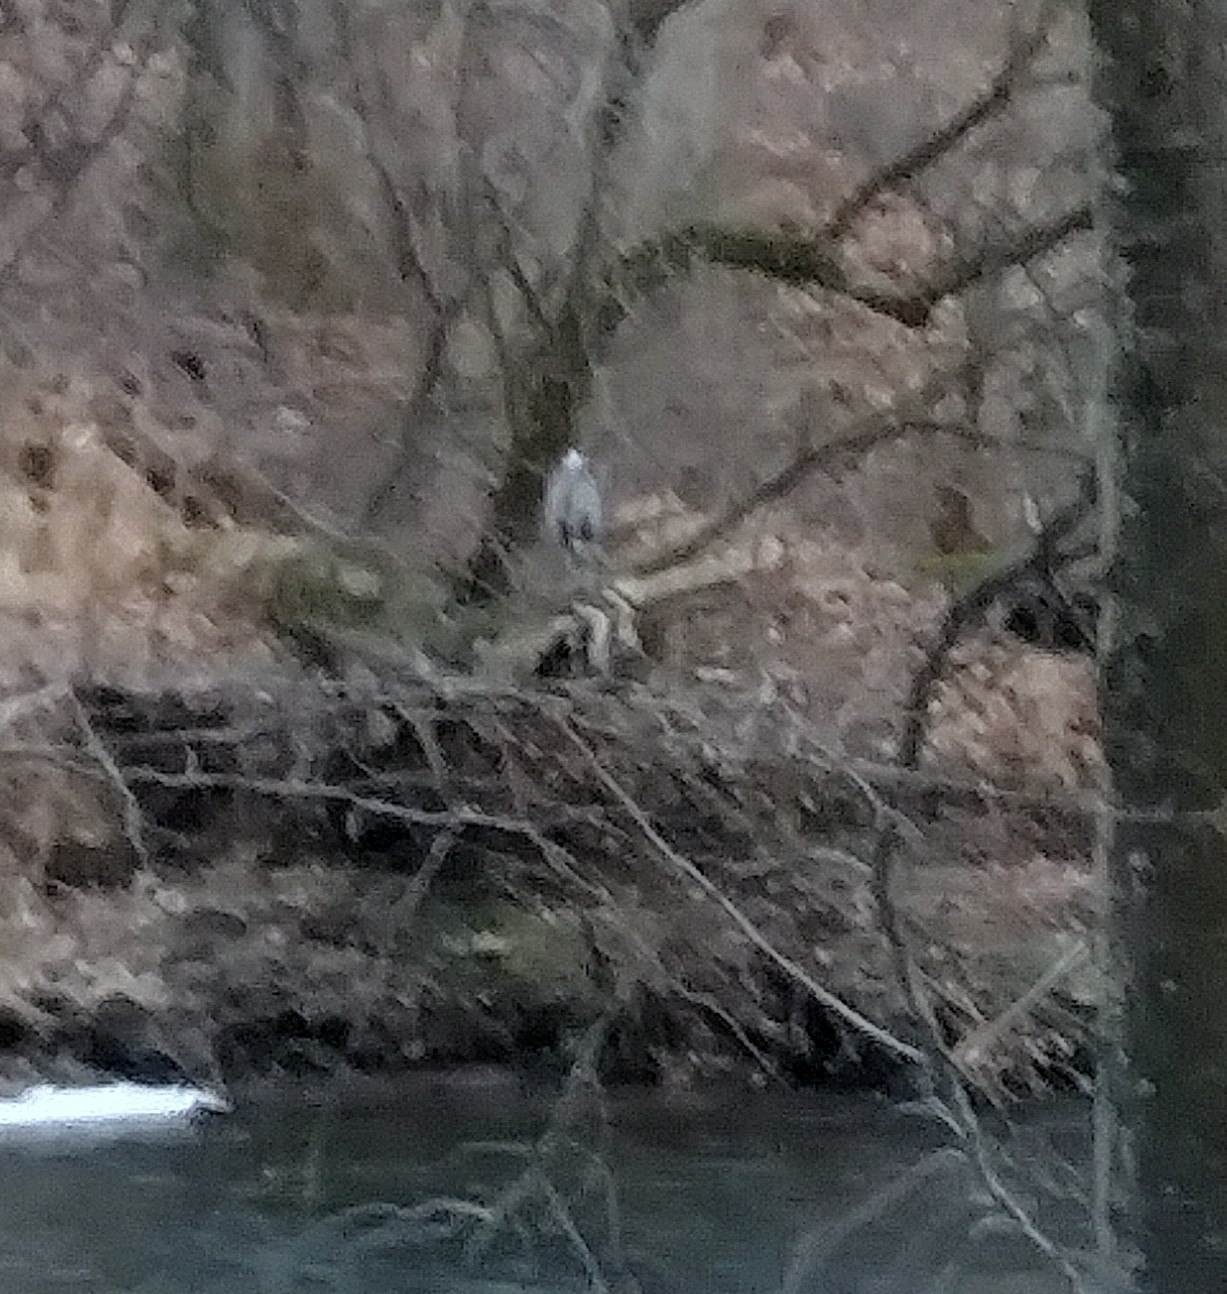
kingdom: Animalia
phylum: Chordata
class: Aves
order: Pelecaniformes
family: Ardeidae
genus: Ardea
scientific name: Ardea herodias
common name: Great blue heron
